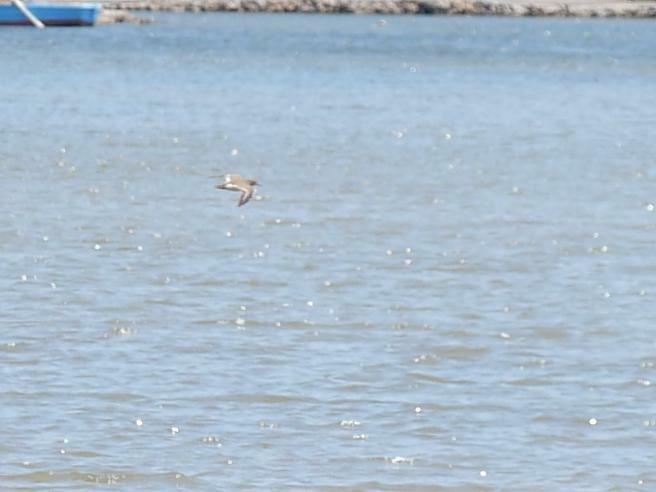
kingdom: Animalia
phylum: Chordata
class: Aves
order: Charadriiformes
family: Scolopacidae
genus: Actitis
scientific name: Actitis hypoleucos
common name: Common sandpiper
